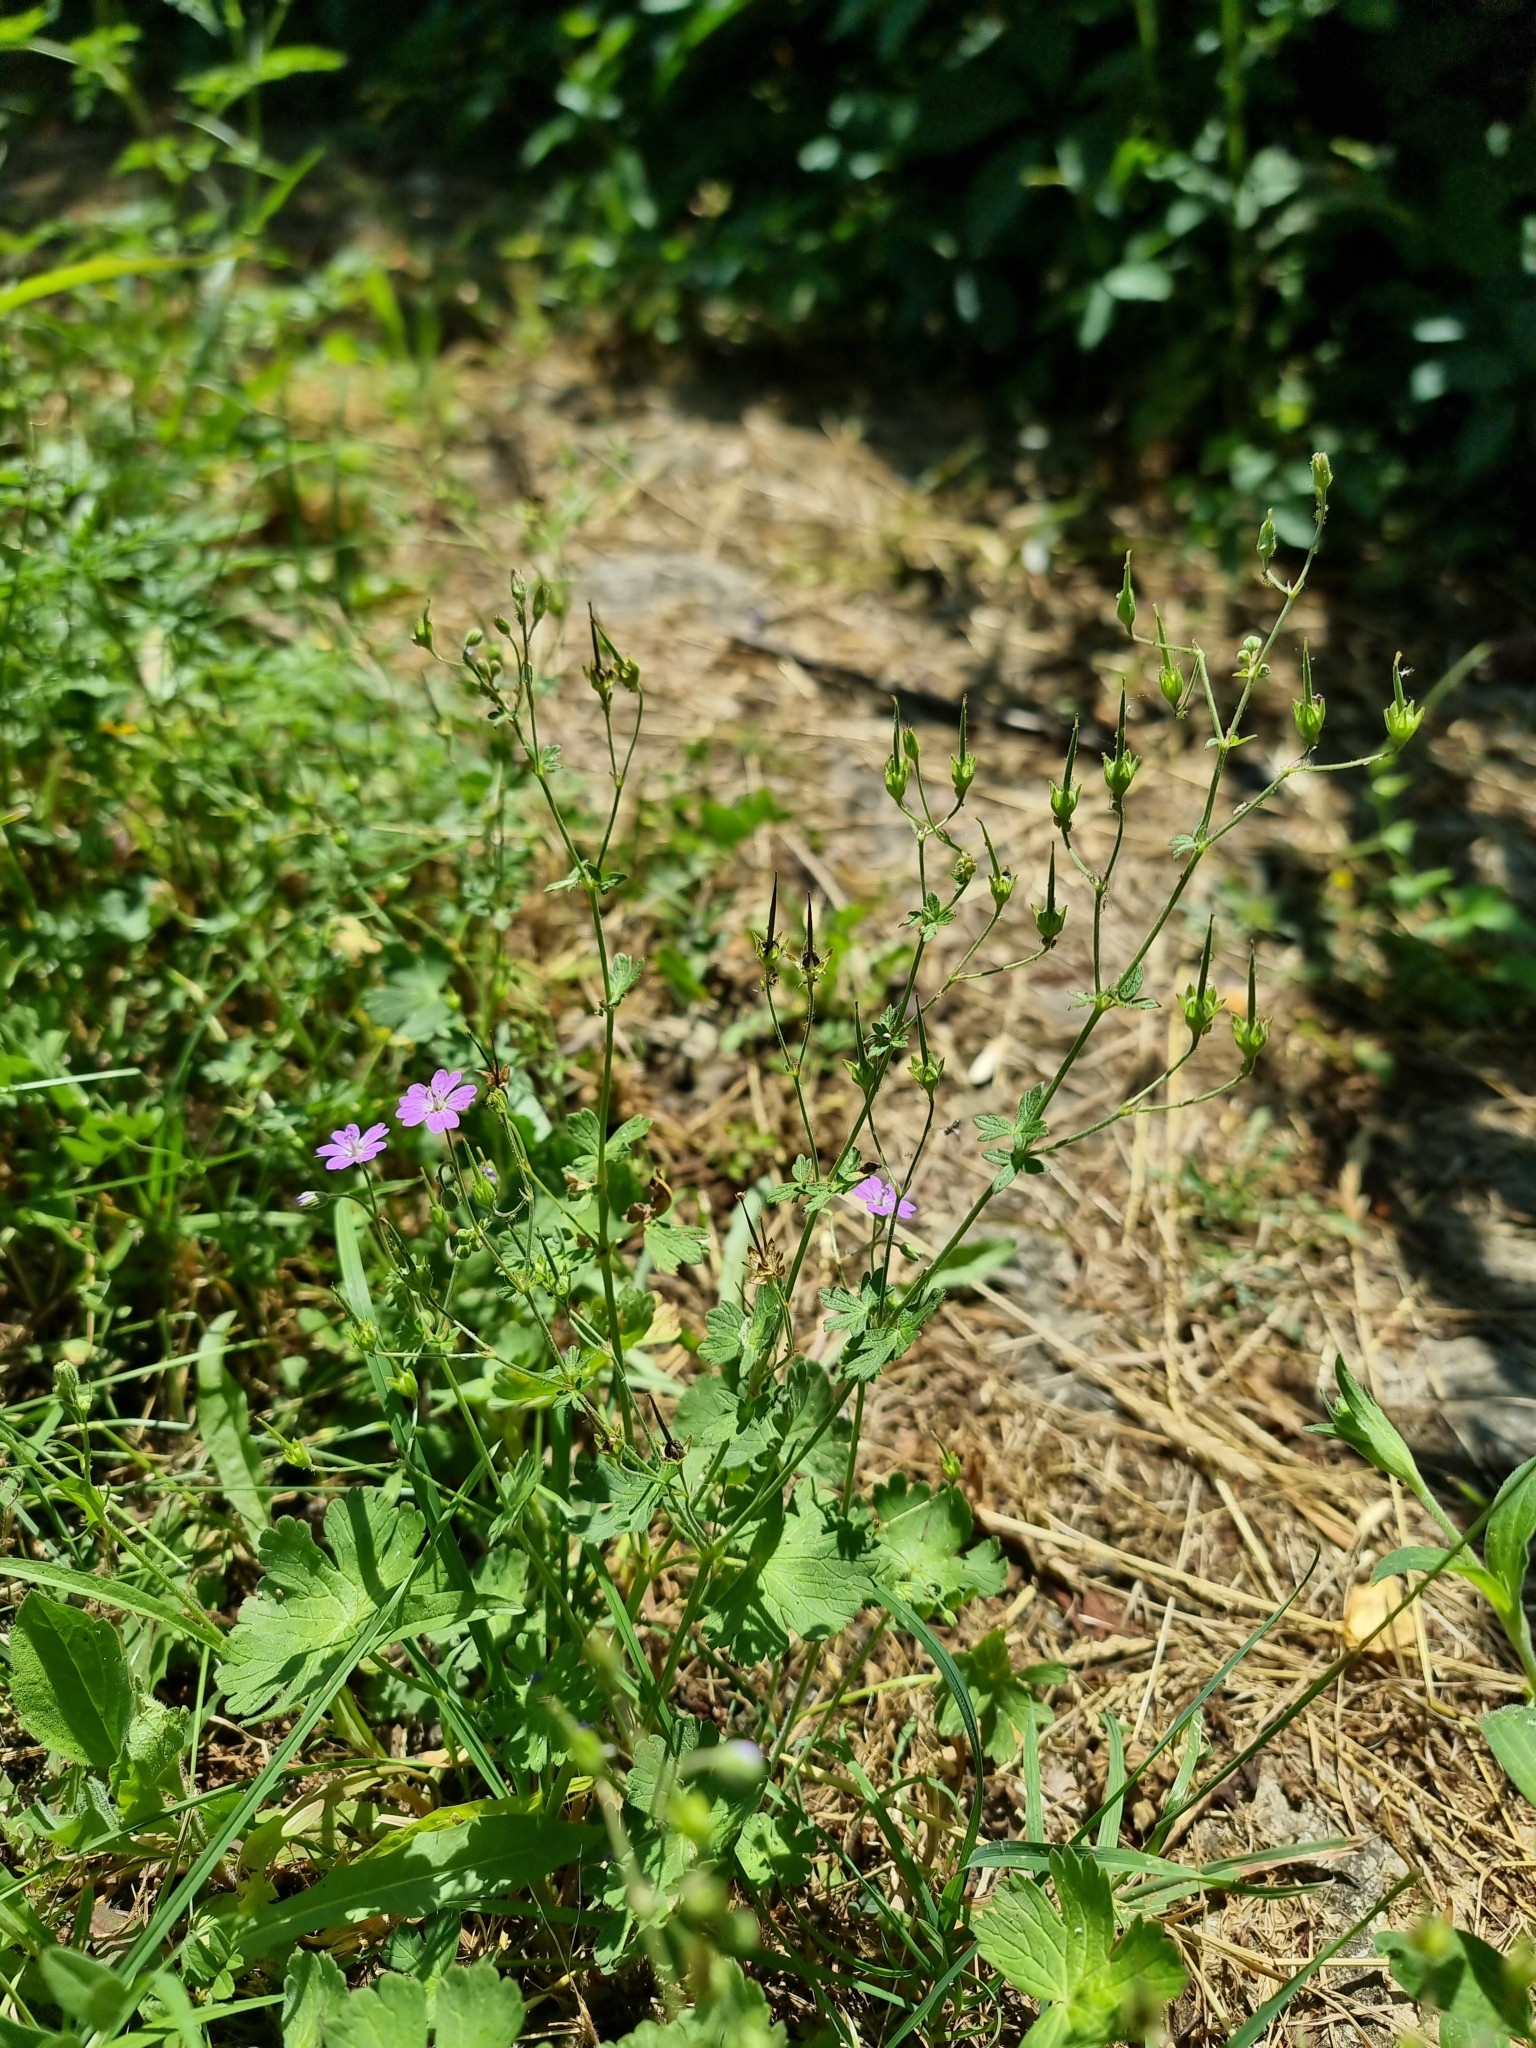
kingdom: Plantae
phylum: Tracheophyta
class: Magnoliopsida
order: Geraniales
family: Geraniaceae
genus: Geranium
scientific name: Geranium pyrenaicum
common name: Hedgerow crane's-bill
